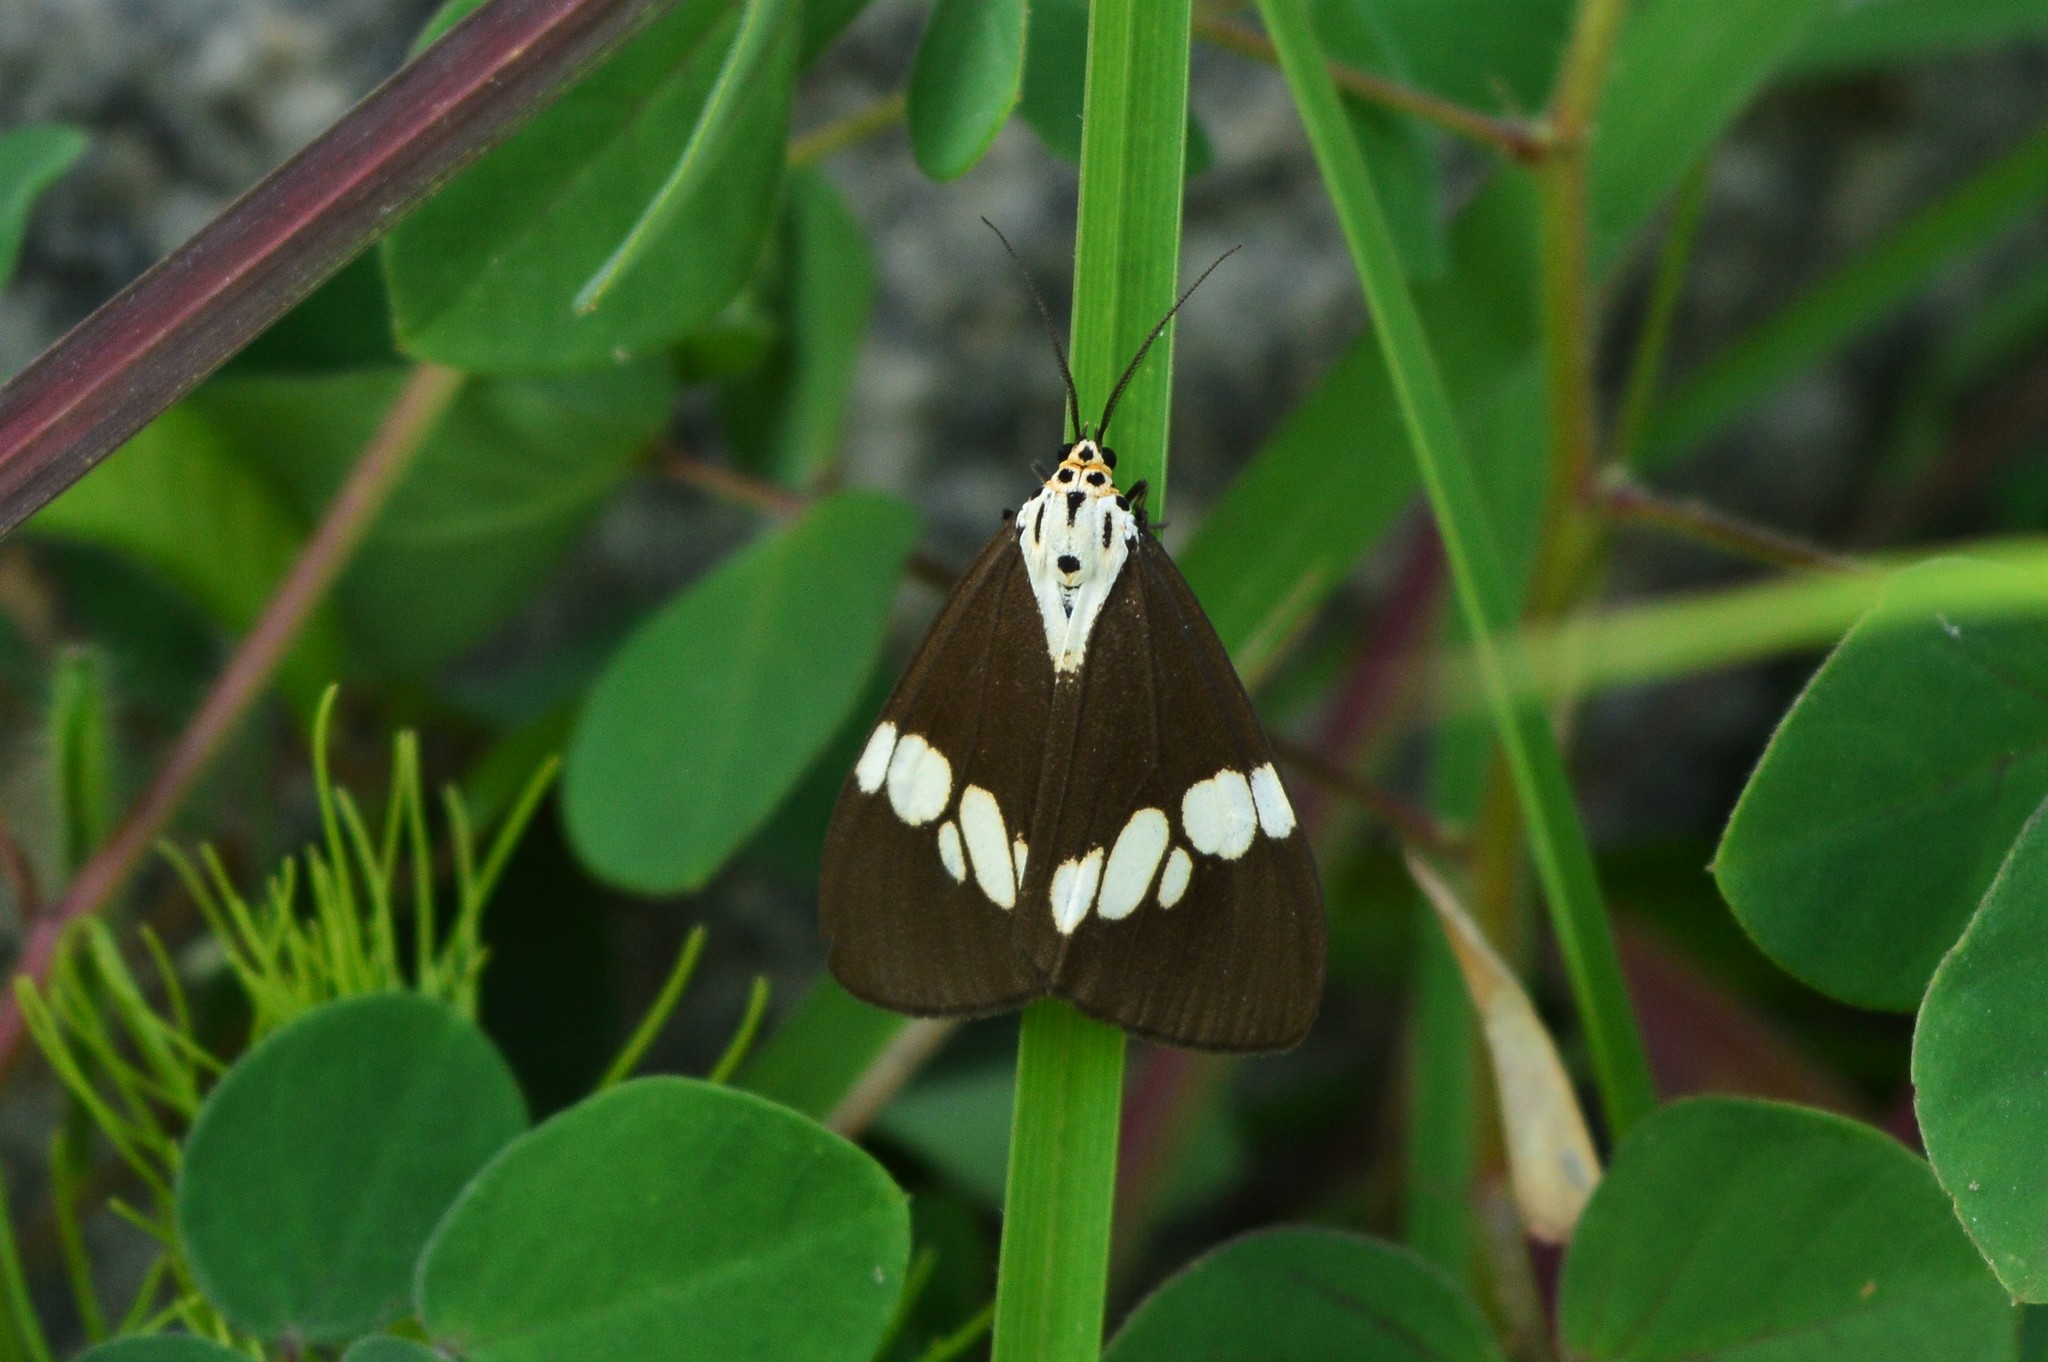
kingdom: Animalia
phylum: Arthropoda
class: Insecta
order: Lepidoptera
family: Erebidae
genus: Nyctemera
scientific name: Nyctemera lacticinia
